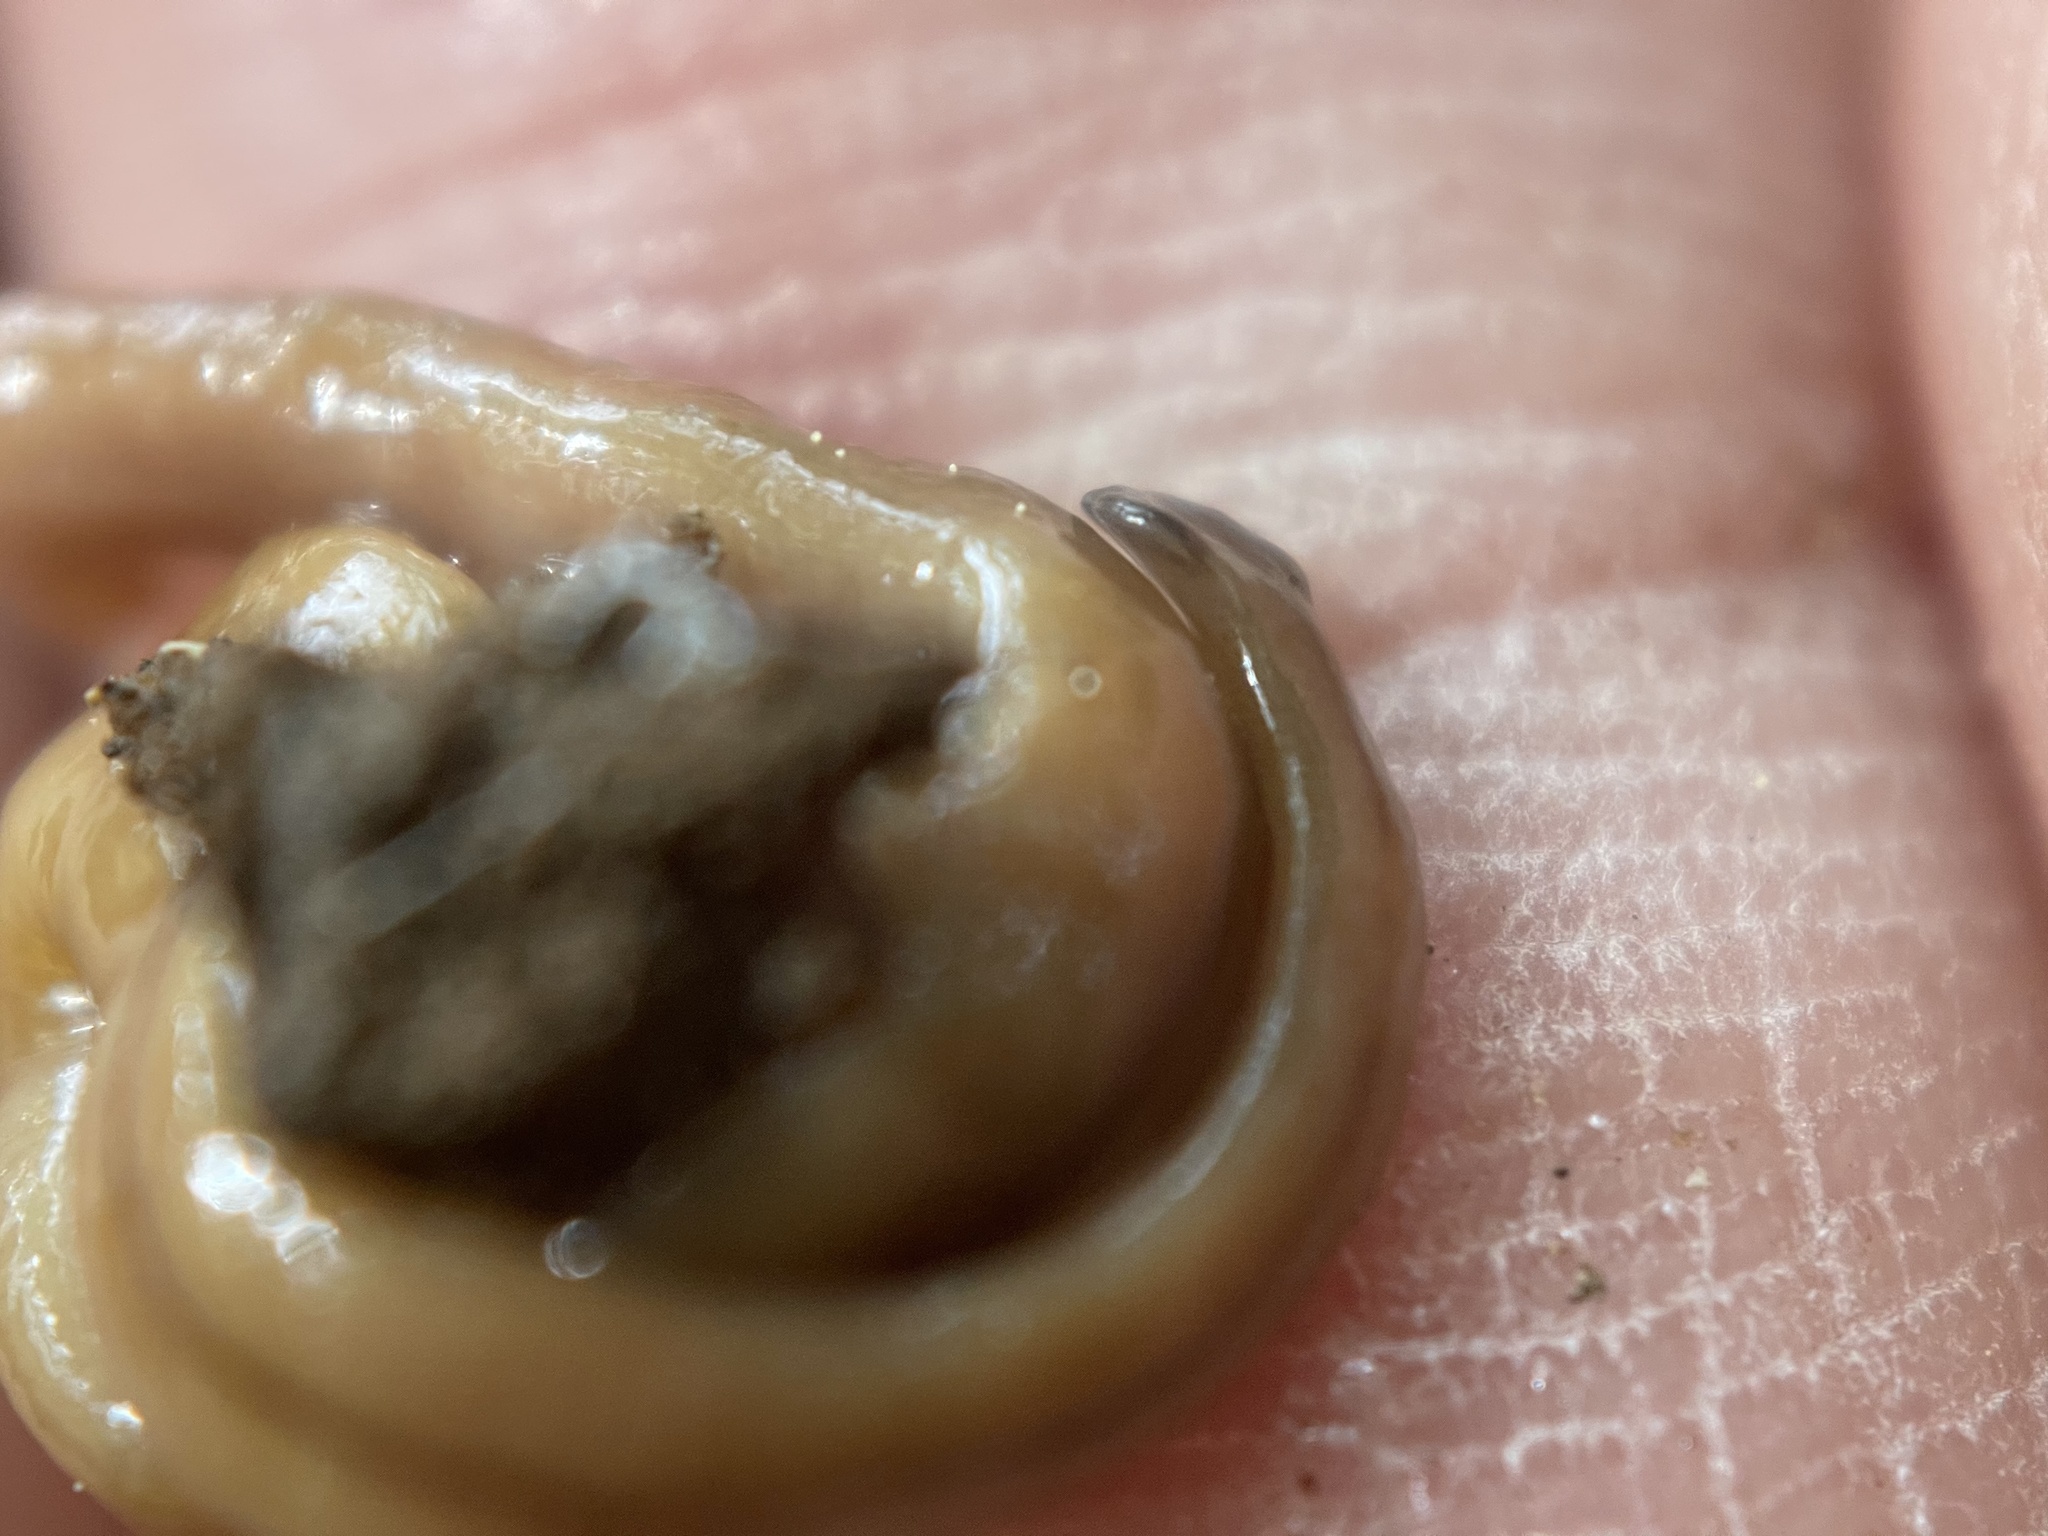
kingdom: Animalia
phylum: Platyhelminthes
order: Tricladida
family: Geoplanidae
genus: Bipalium
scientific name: Bipalium adventitium
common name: Land planarian
